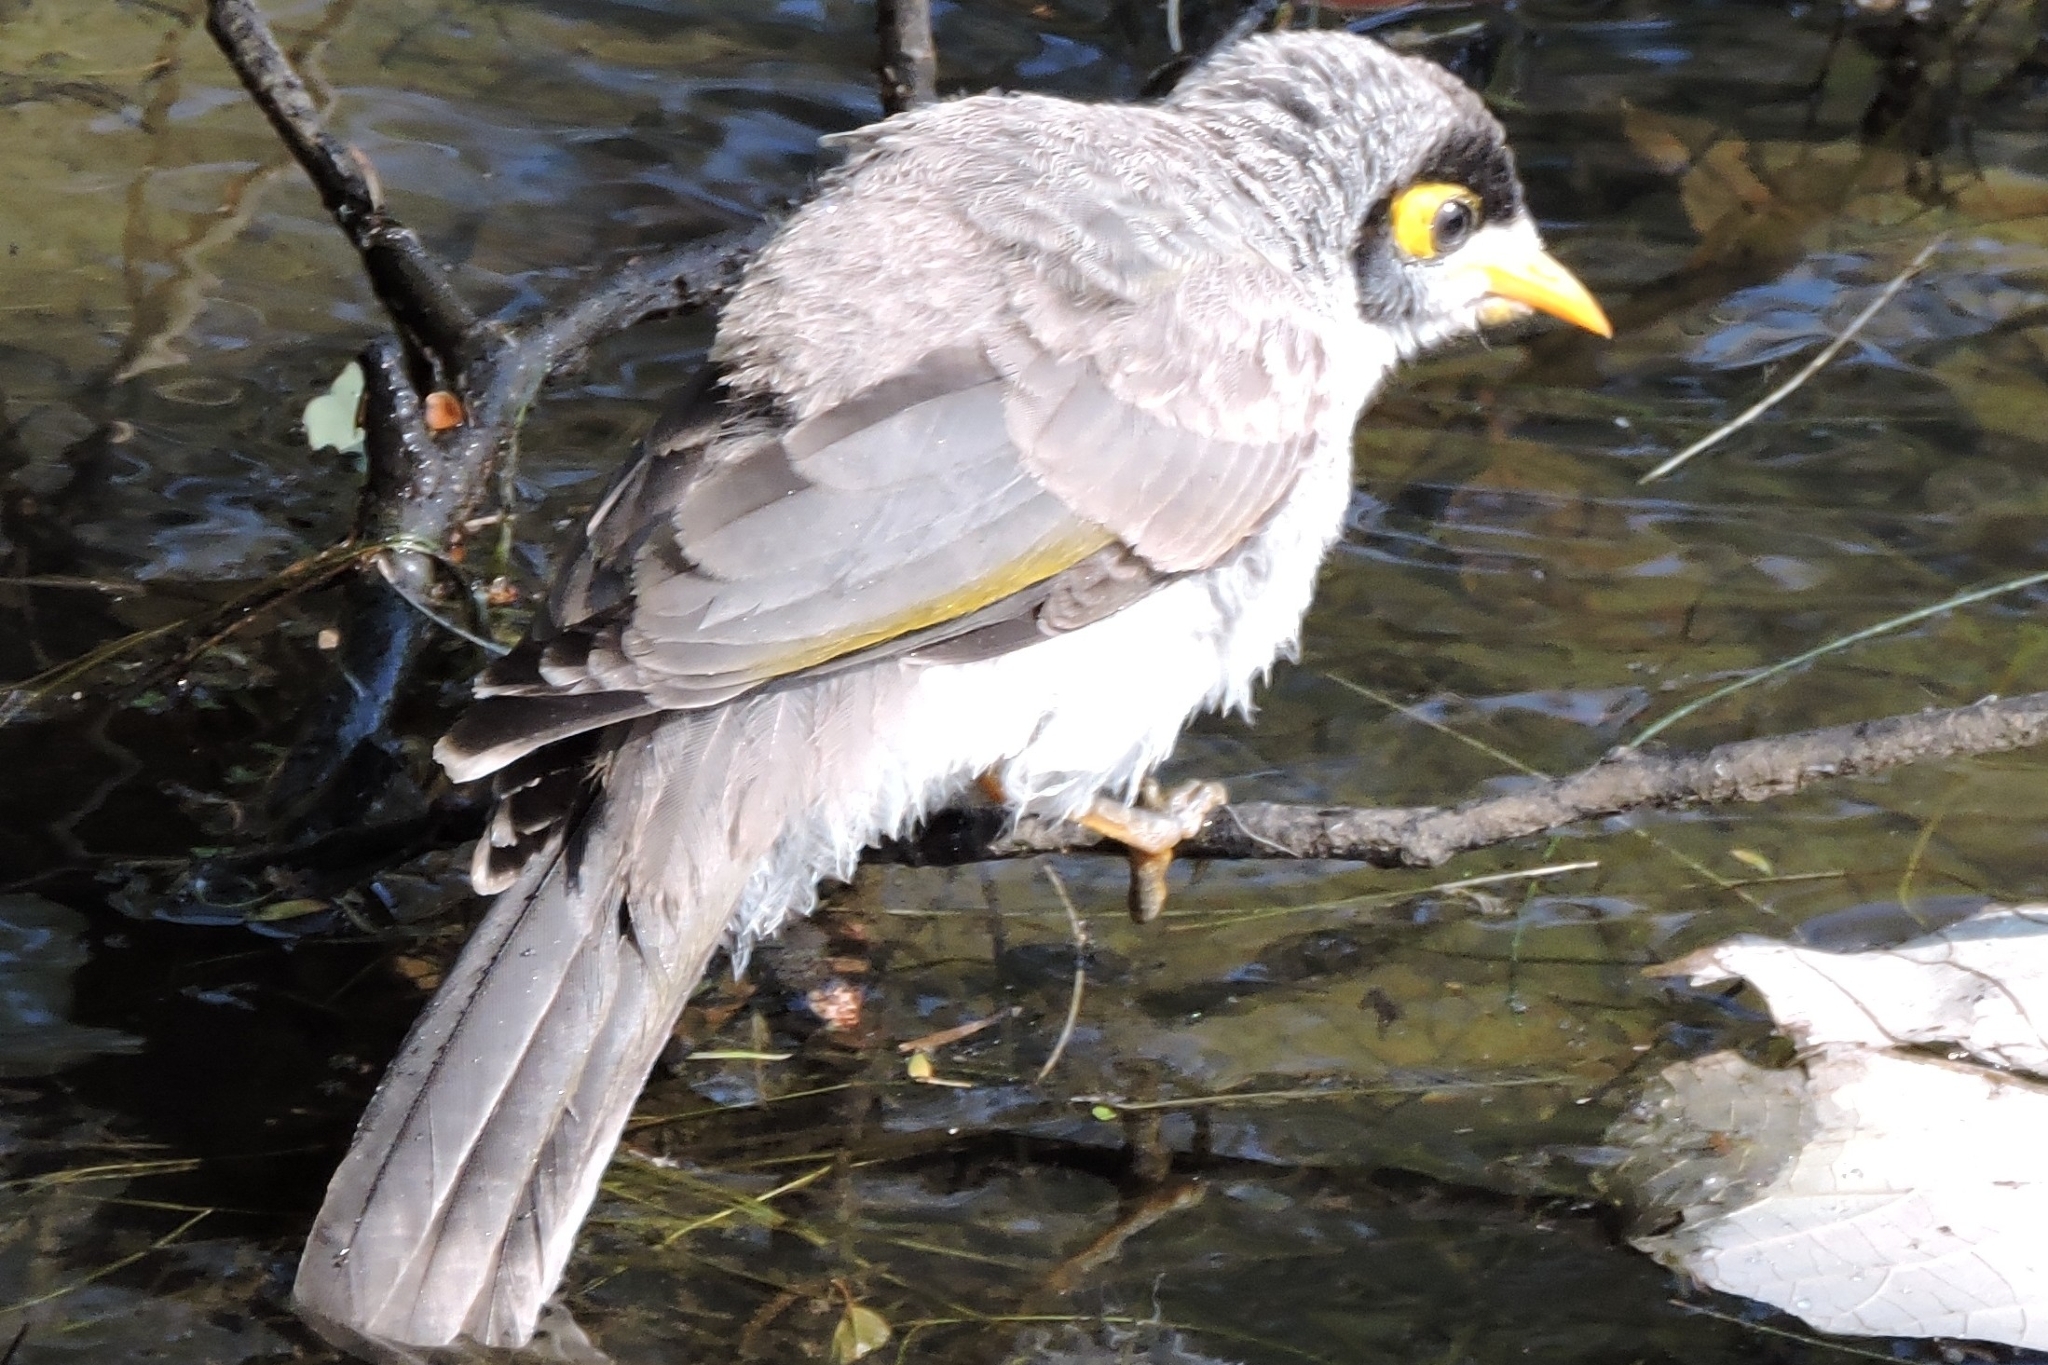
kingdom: Animalia
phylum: Chordata
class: Aves
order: Passeriformes
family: Meliphagidae
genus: Manorina
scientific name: Manorina melanocephala
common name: Noisy miner
